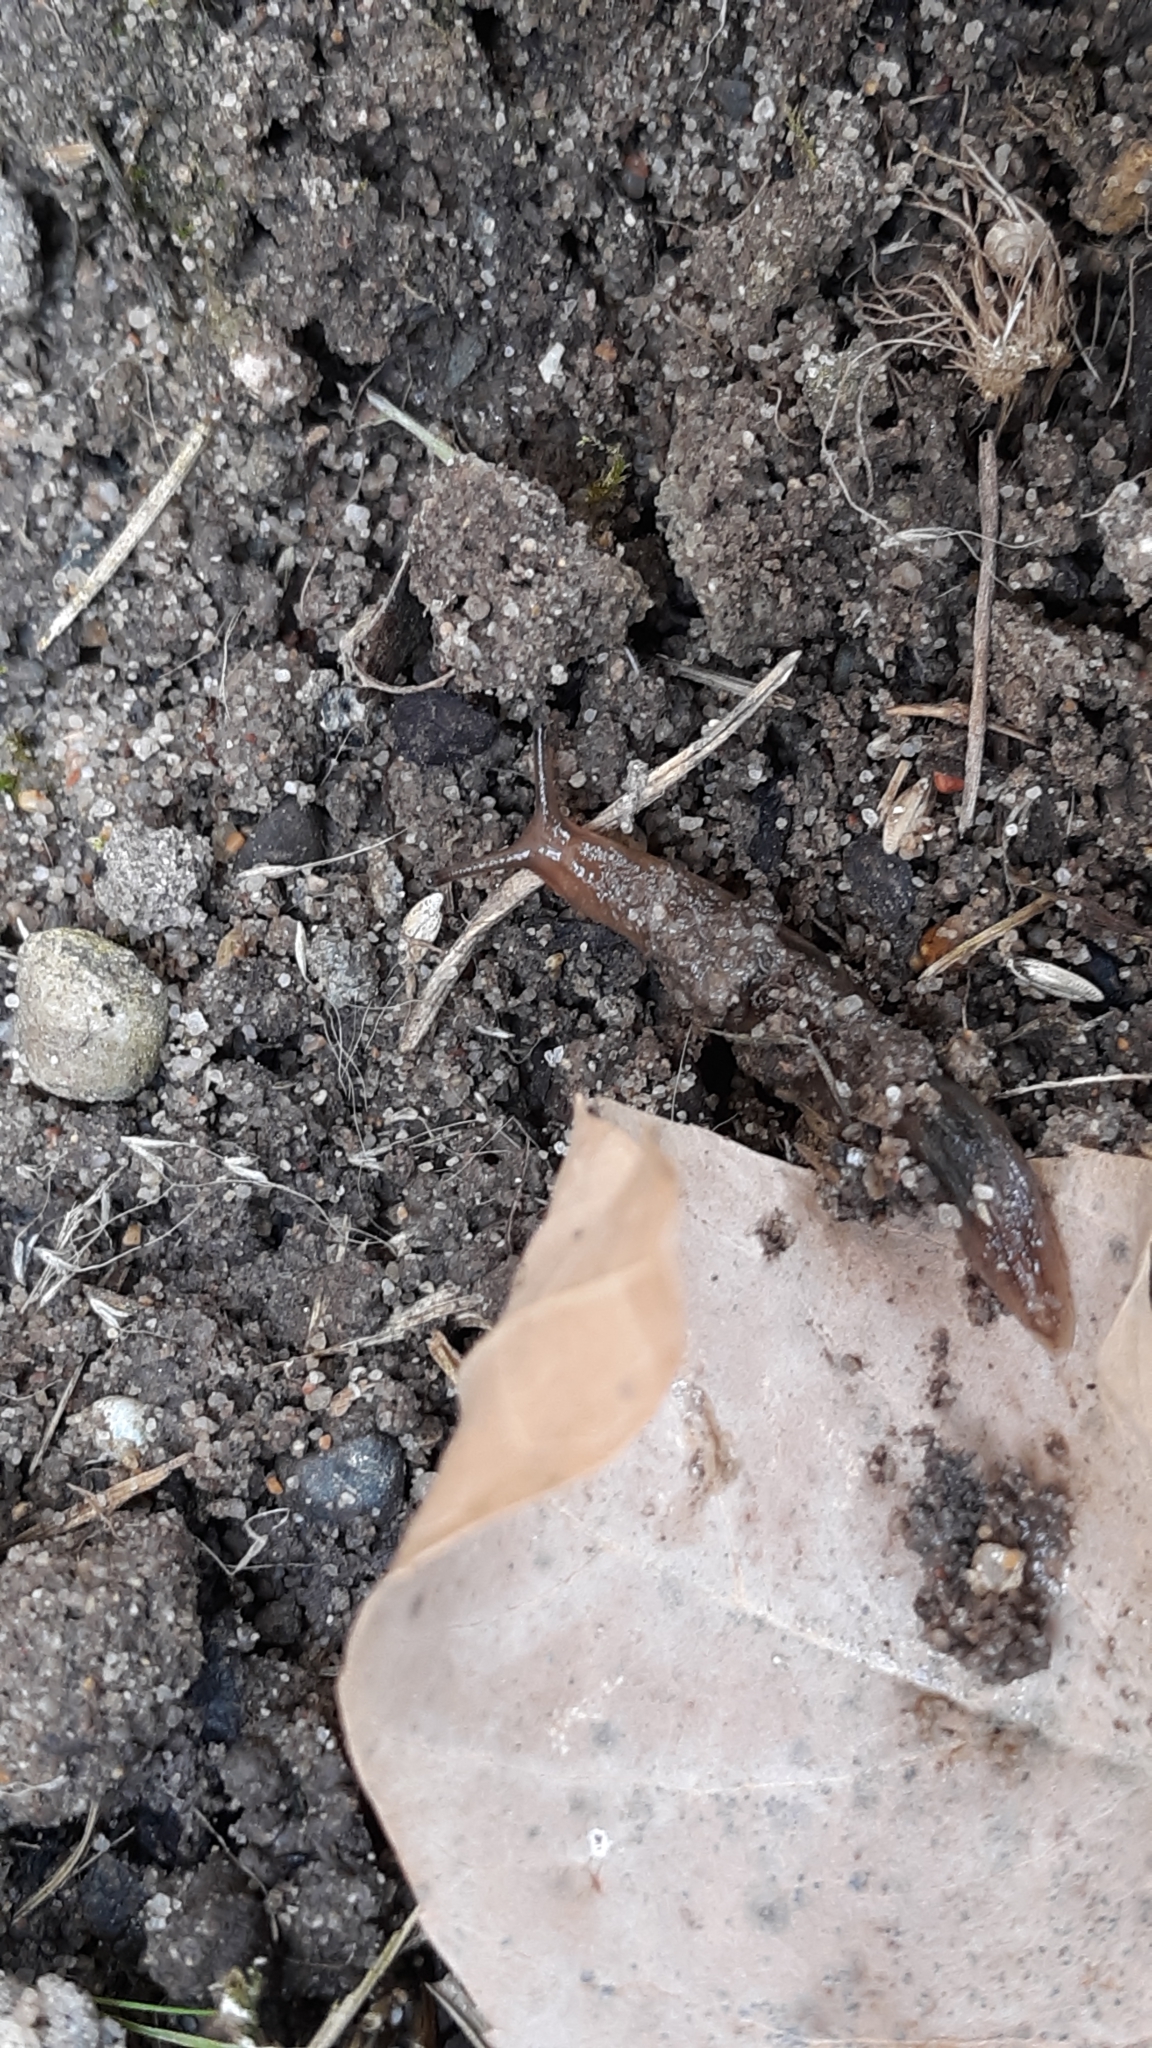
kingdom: Animalia
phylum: Mollusca
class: Gastropoda
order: Stylommatophora
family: Limacidae
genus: Ambigolimax
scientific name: Ambigolimax
